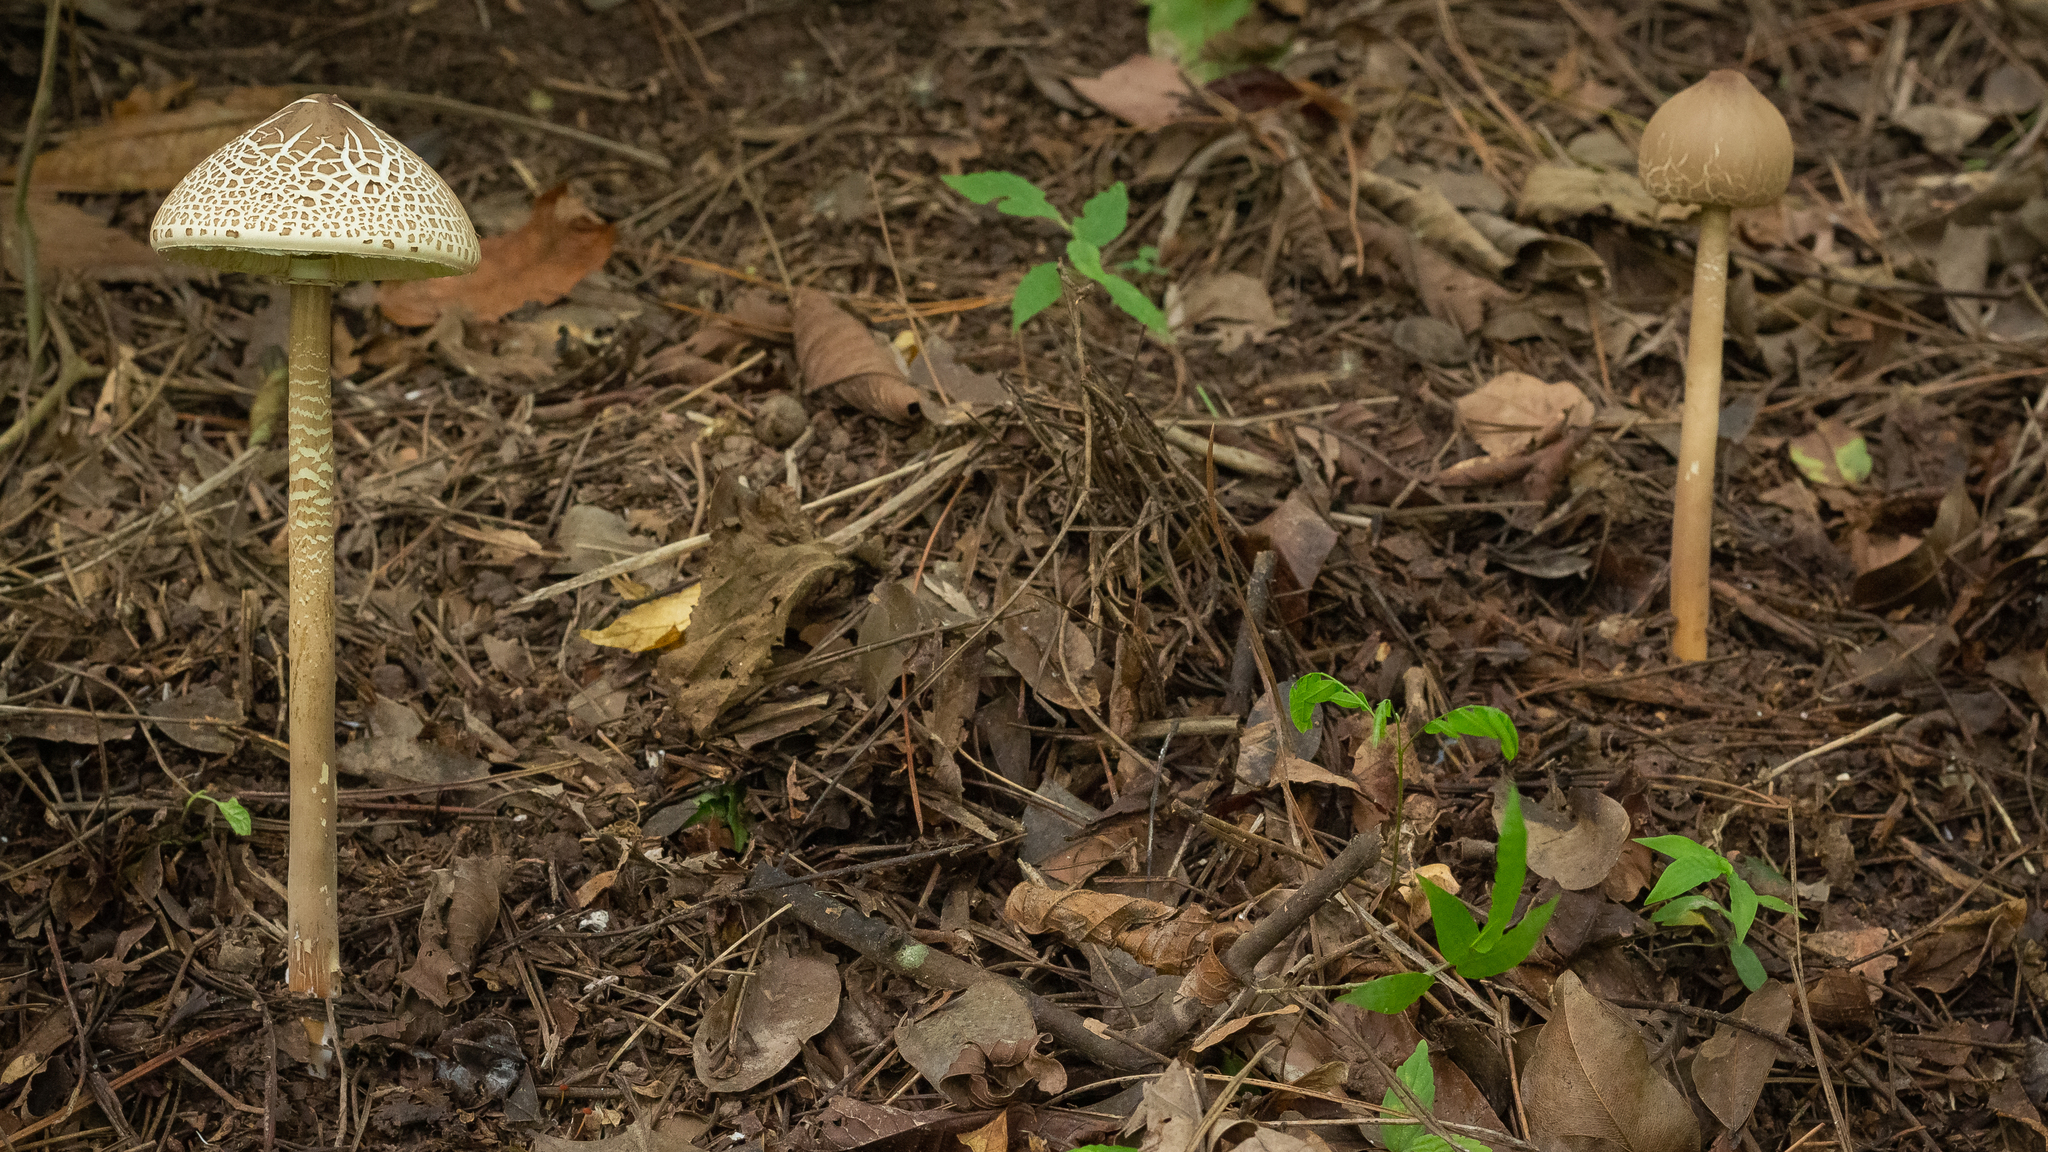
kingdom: Fungi
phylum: Basidiomycota
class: Agaricomycetes
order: Agaricales
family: Agaricaceae
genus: Macrolepiota
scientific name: Macrolepiota capelariae
